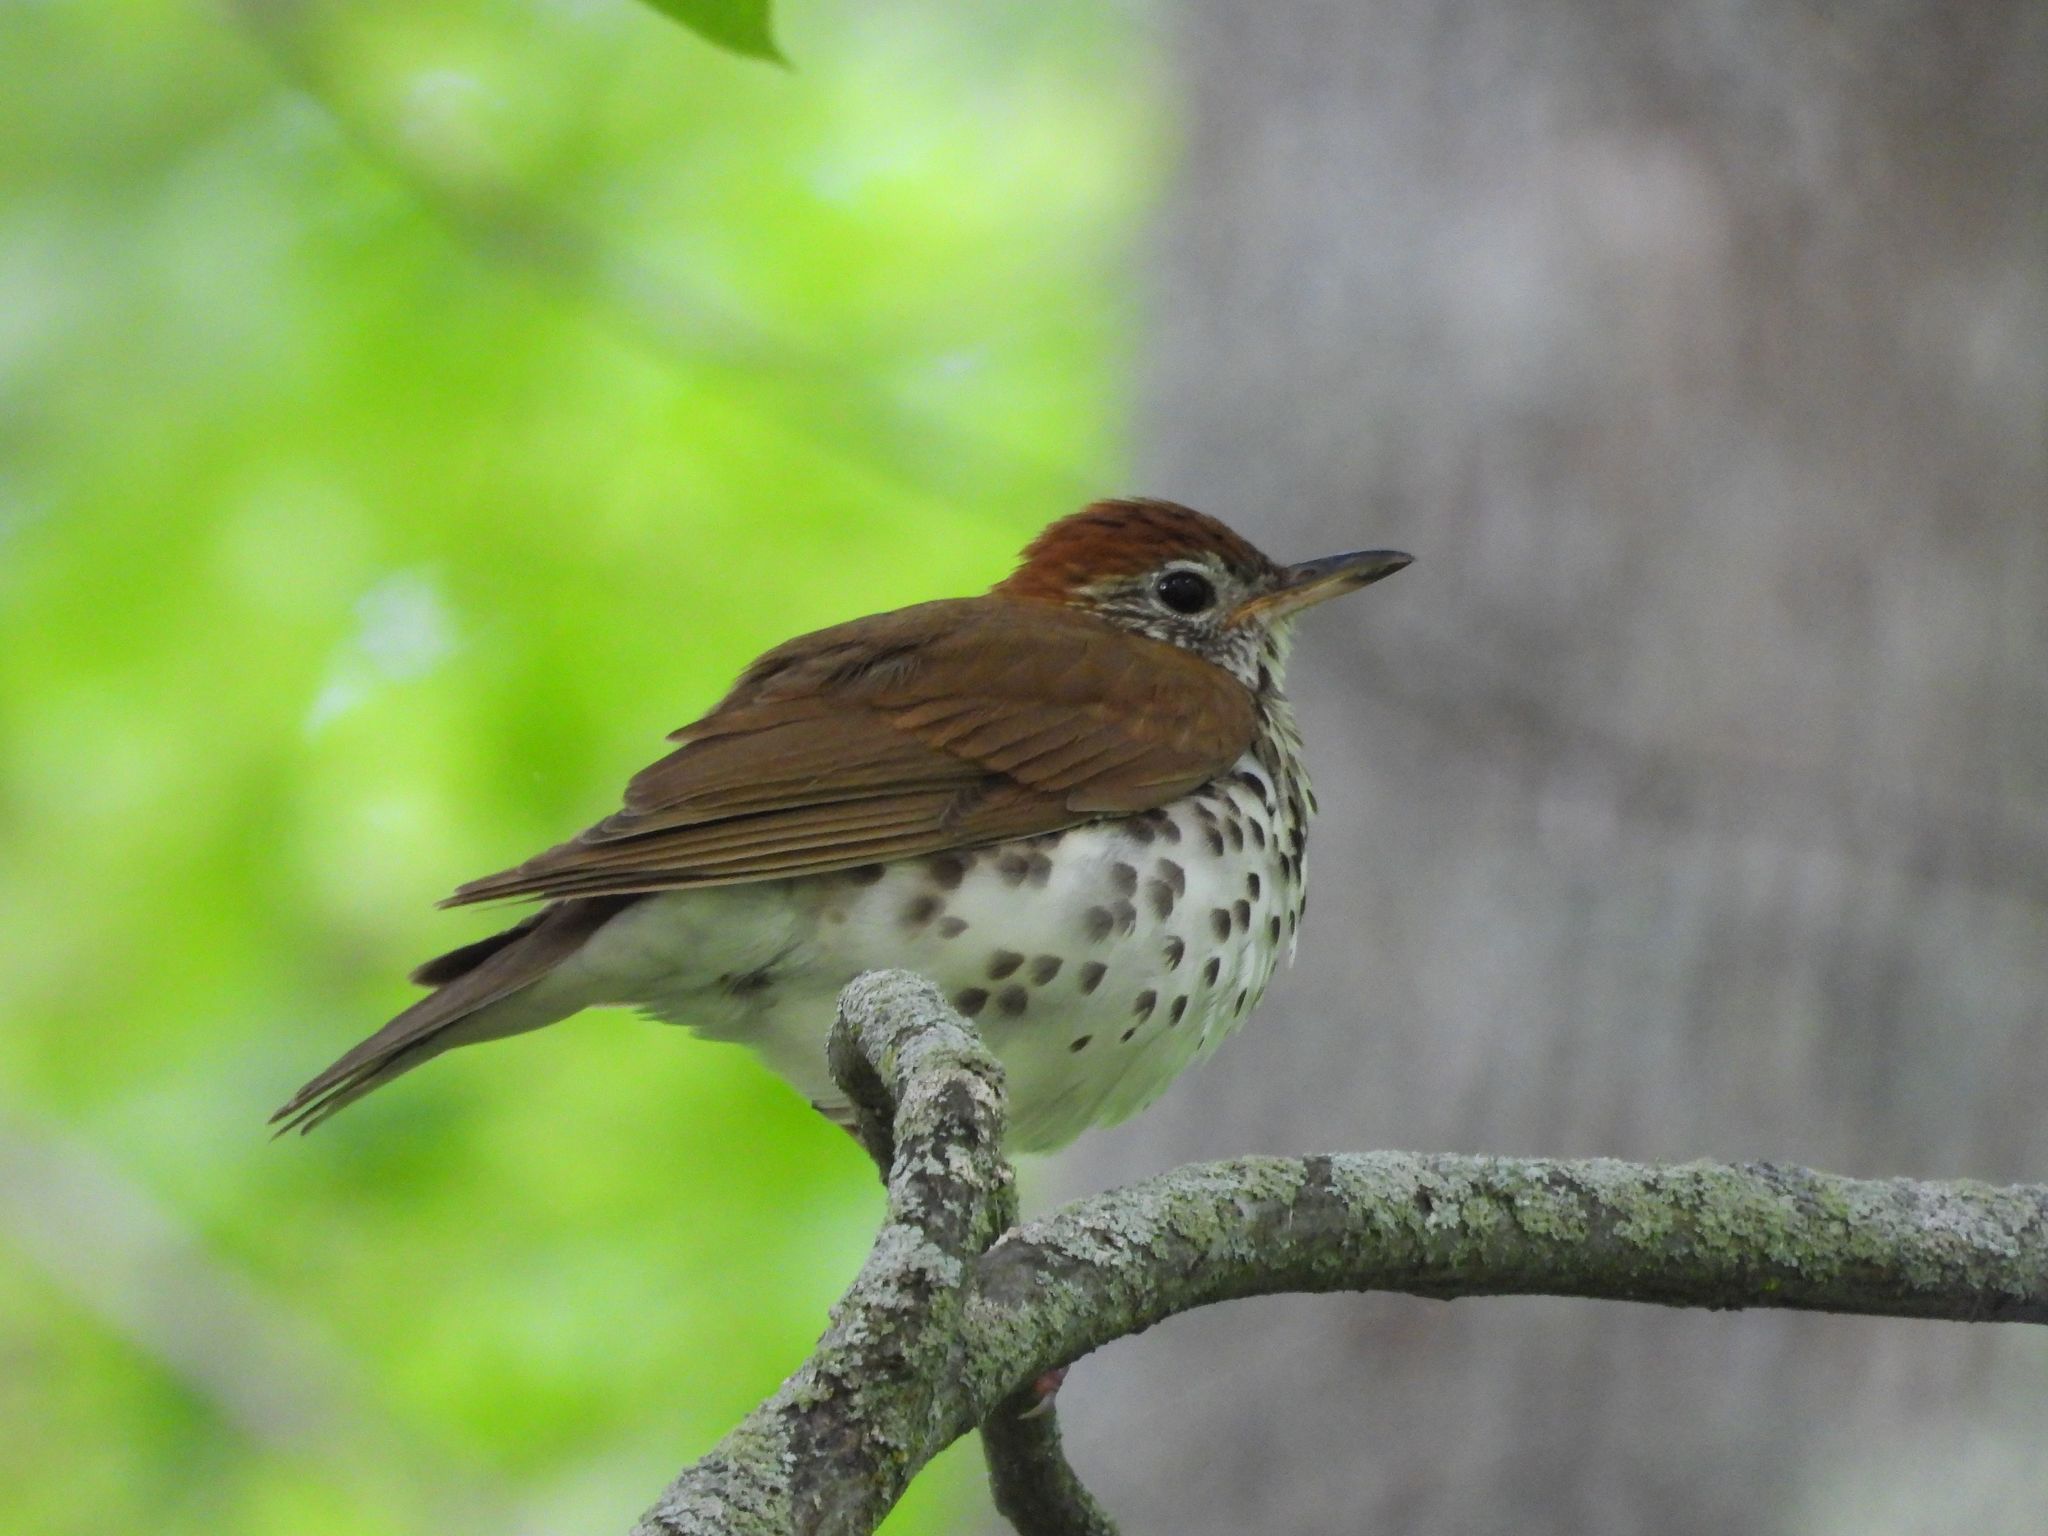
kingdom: Animalia
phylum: Chordata
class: Aves
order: Passeriformes
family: Turdidae
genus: Hylocichla
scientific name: Hylocichla mustelina
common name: Wood thrush
